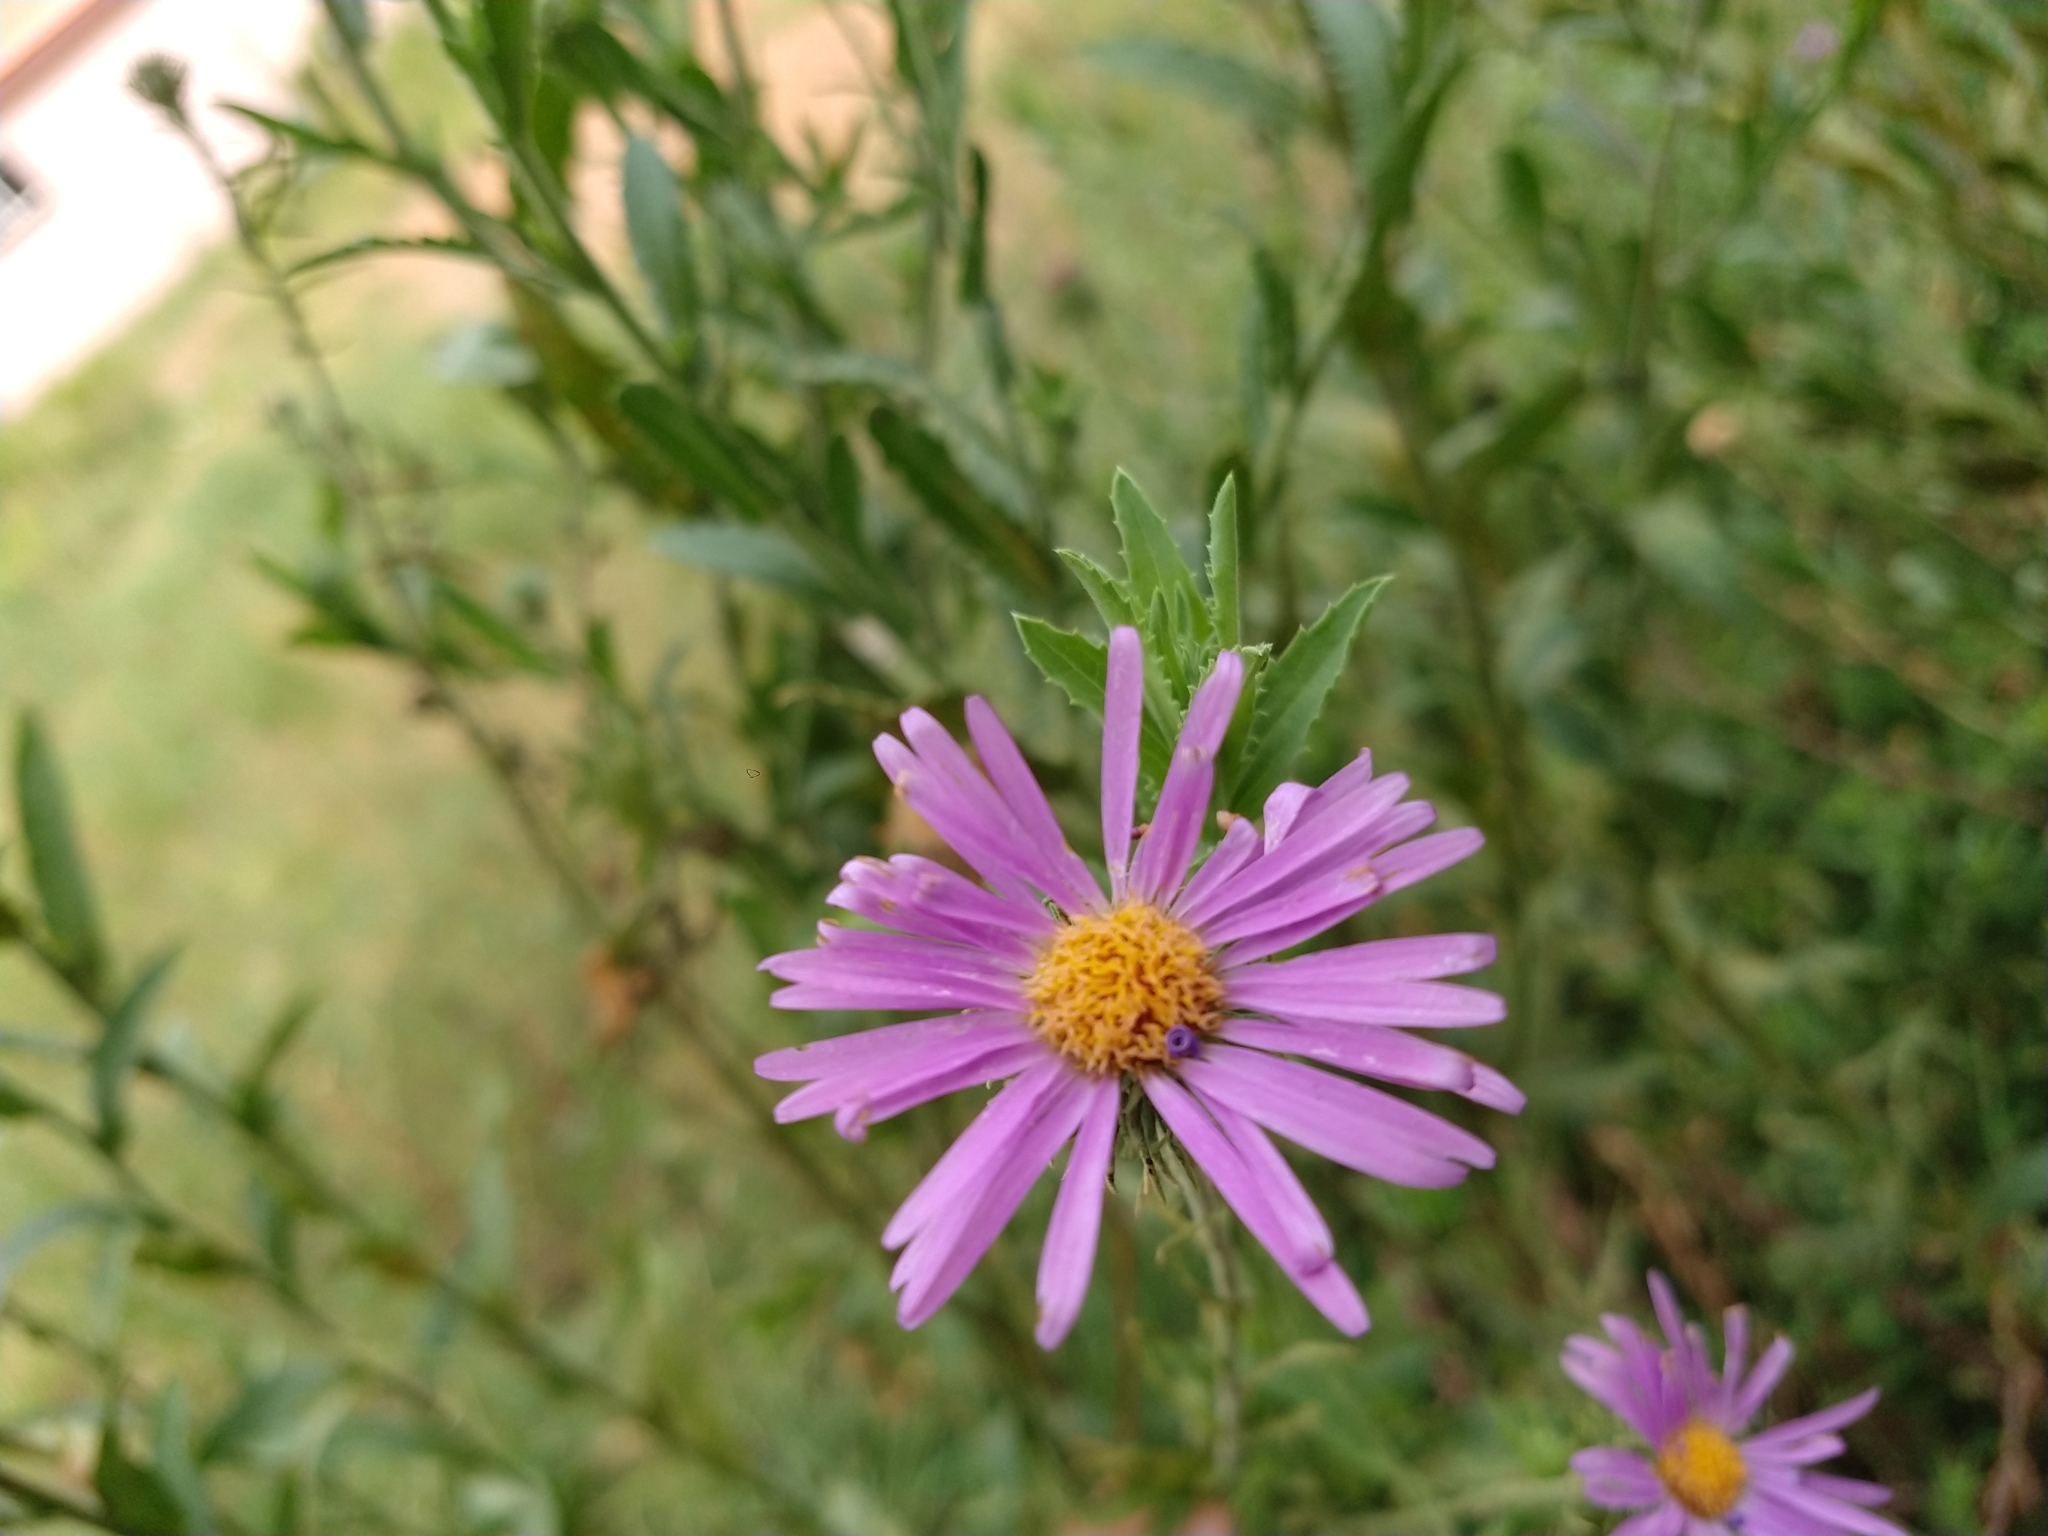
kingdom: Plantae
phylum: Tracheophyta
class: Magnoliopsida
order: Asterales
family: Asteraceae
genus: Dieteria
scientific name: Dieteria asteroides
